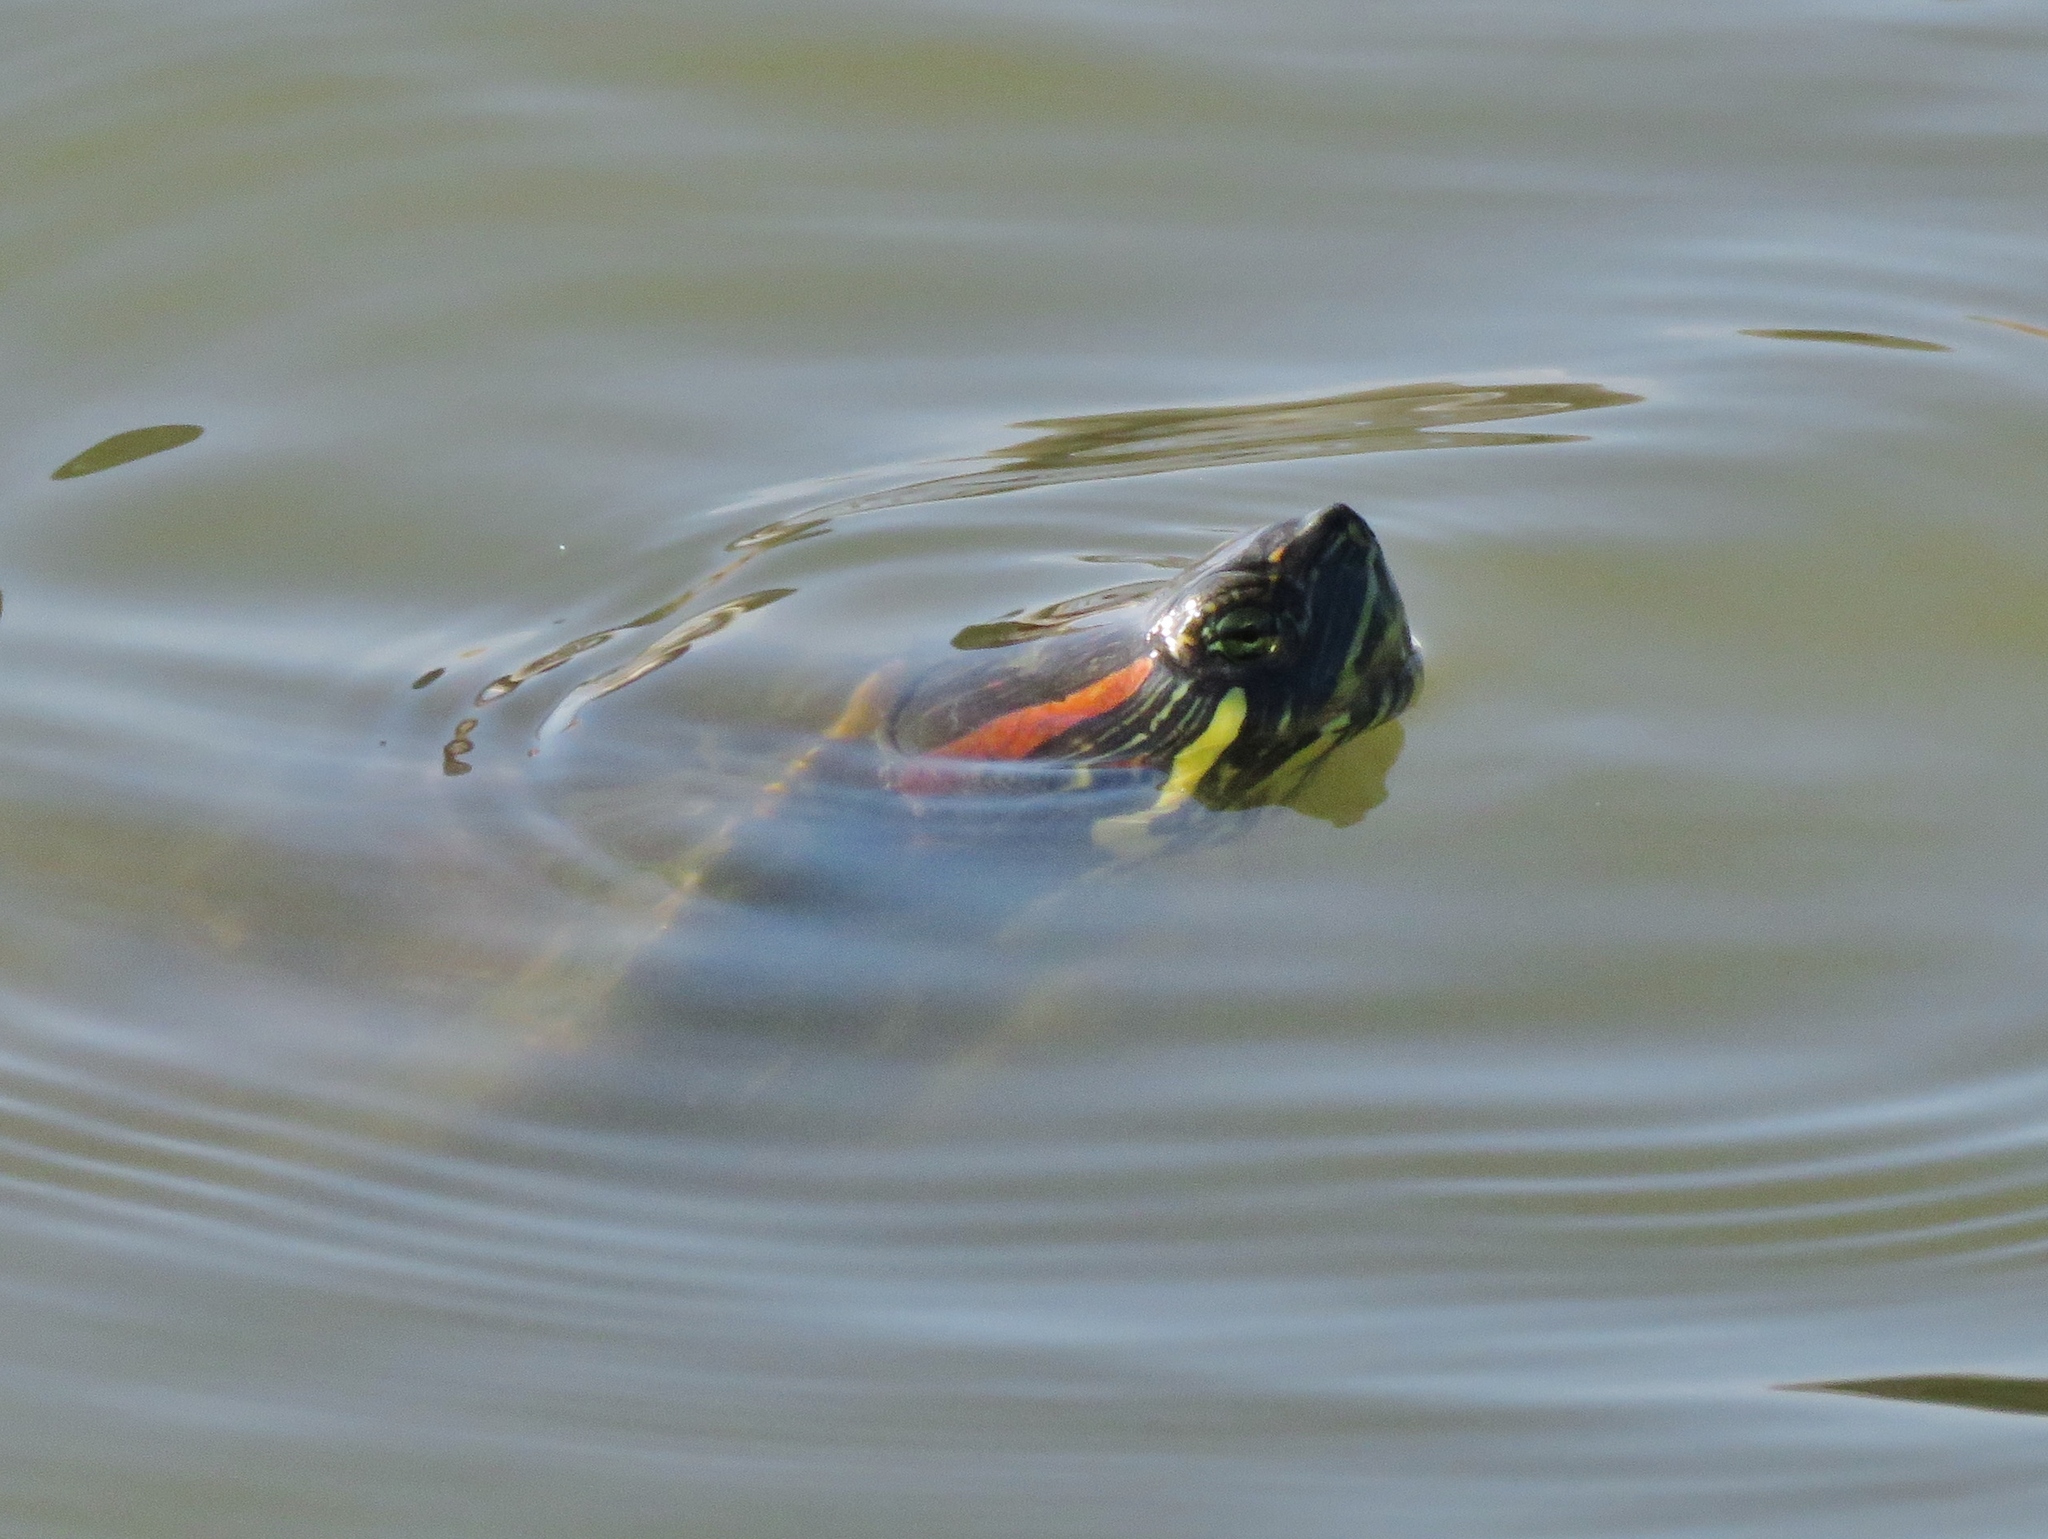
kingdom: Animalia
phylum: Chordata
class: Testudines
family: Emydidae
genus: Trachemys
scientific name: Trachemys scripta
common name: Slider
